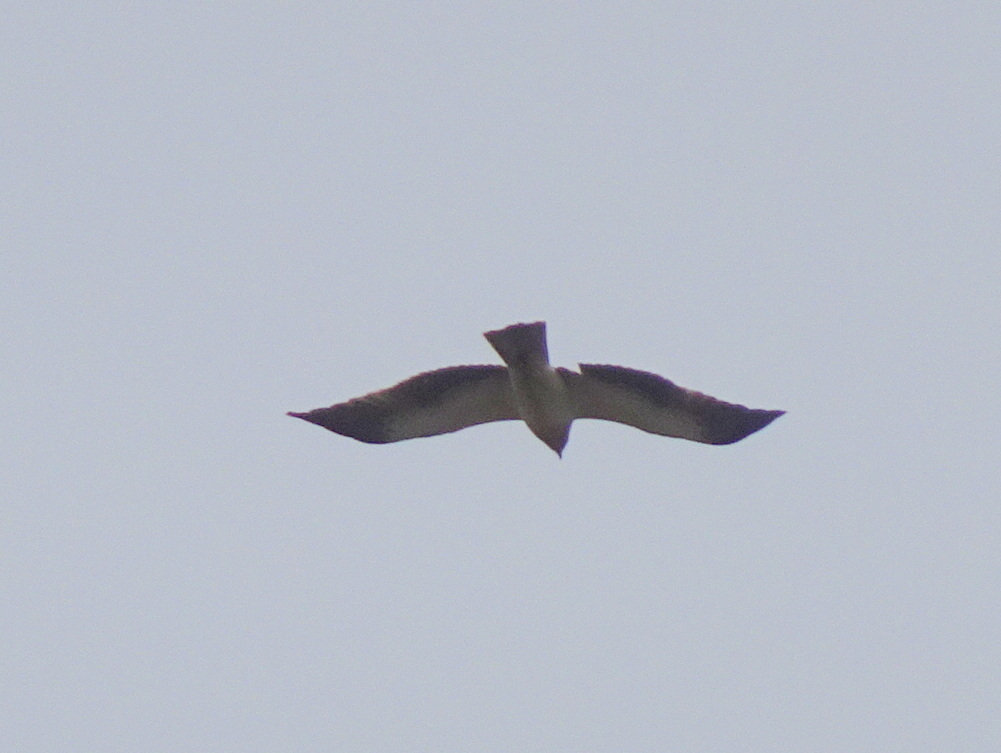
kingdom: Animalia
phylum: Chordata
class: Aves
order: Accipitriformes
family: Accipitridae
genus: Hieraaetus
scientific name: Hieraaetus pennatus
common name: Booted eagle
